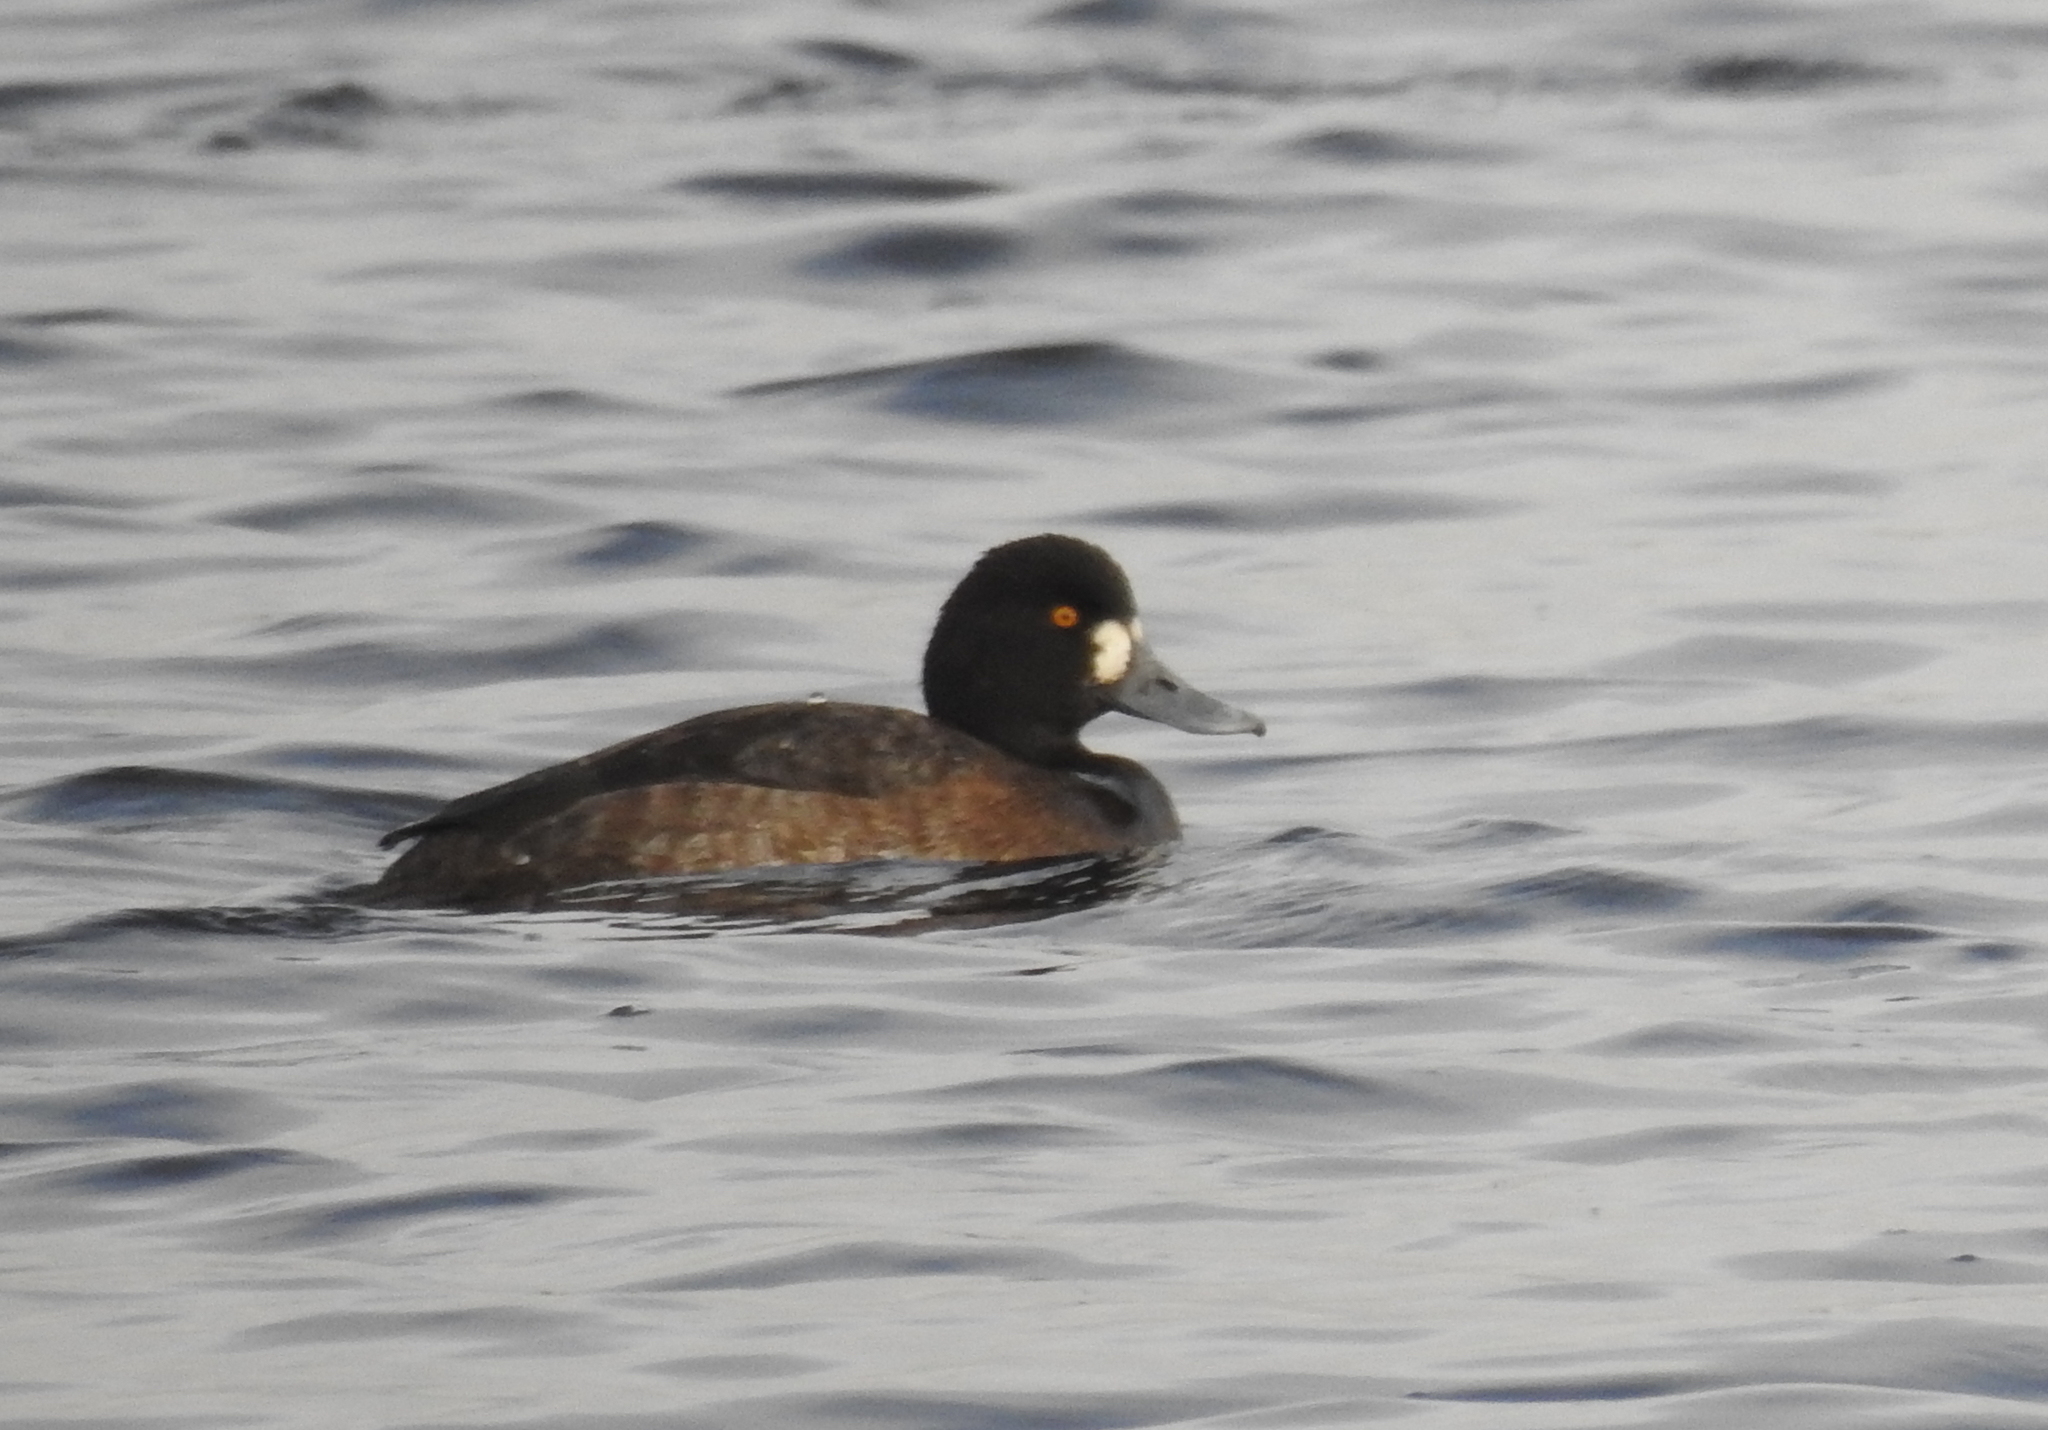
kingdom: Animalia
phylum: Chordata
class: Aves
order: Anseriformes
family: Anatidae
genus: Aythya
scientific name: Aythya affinis
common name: Lesser scaup
